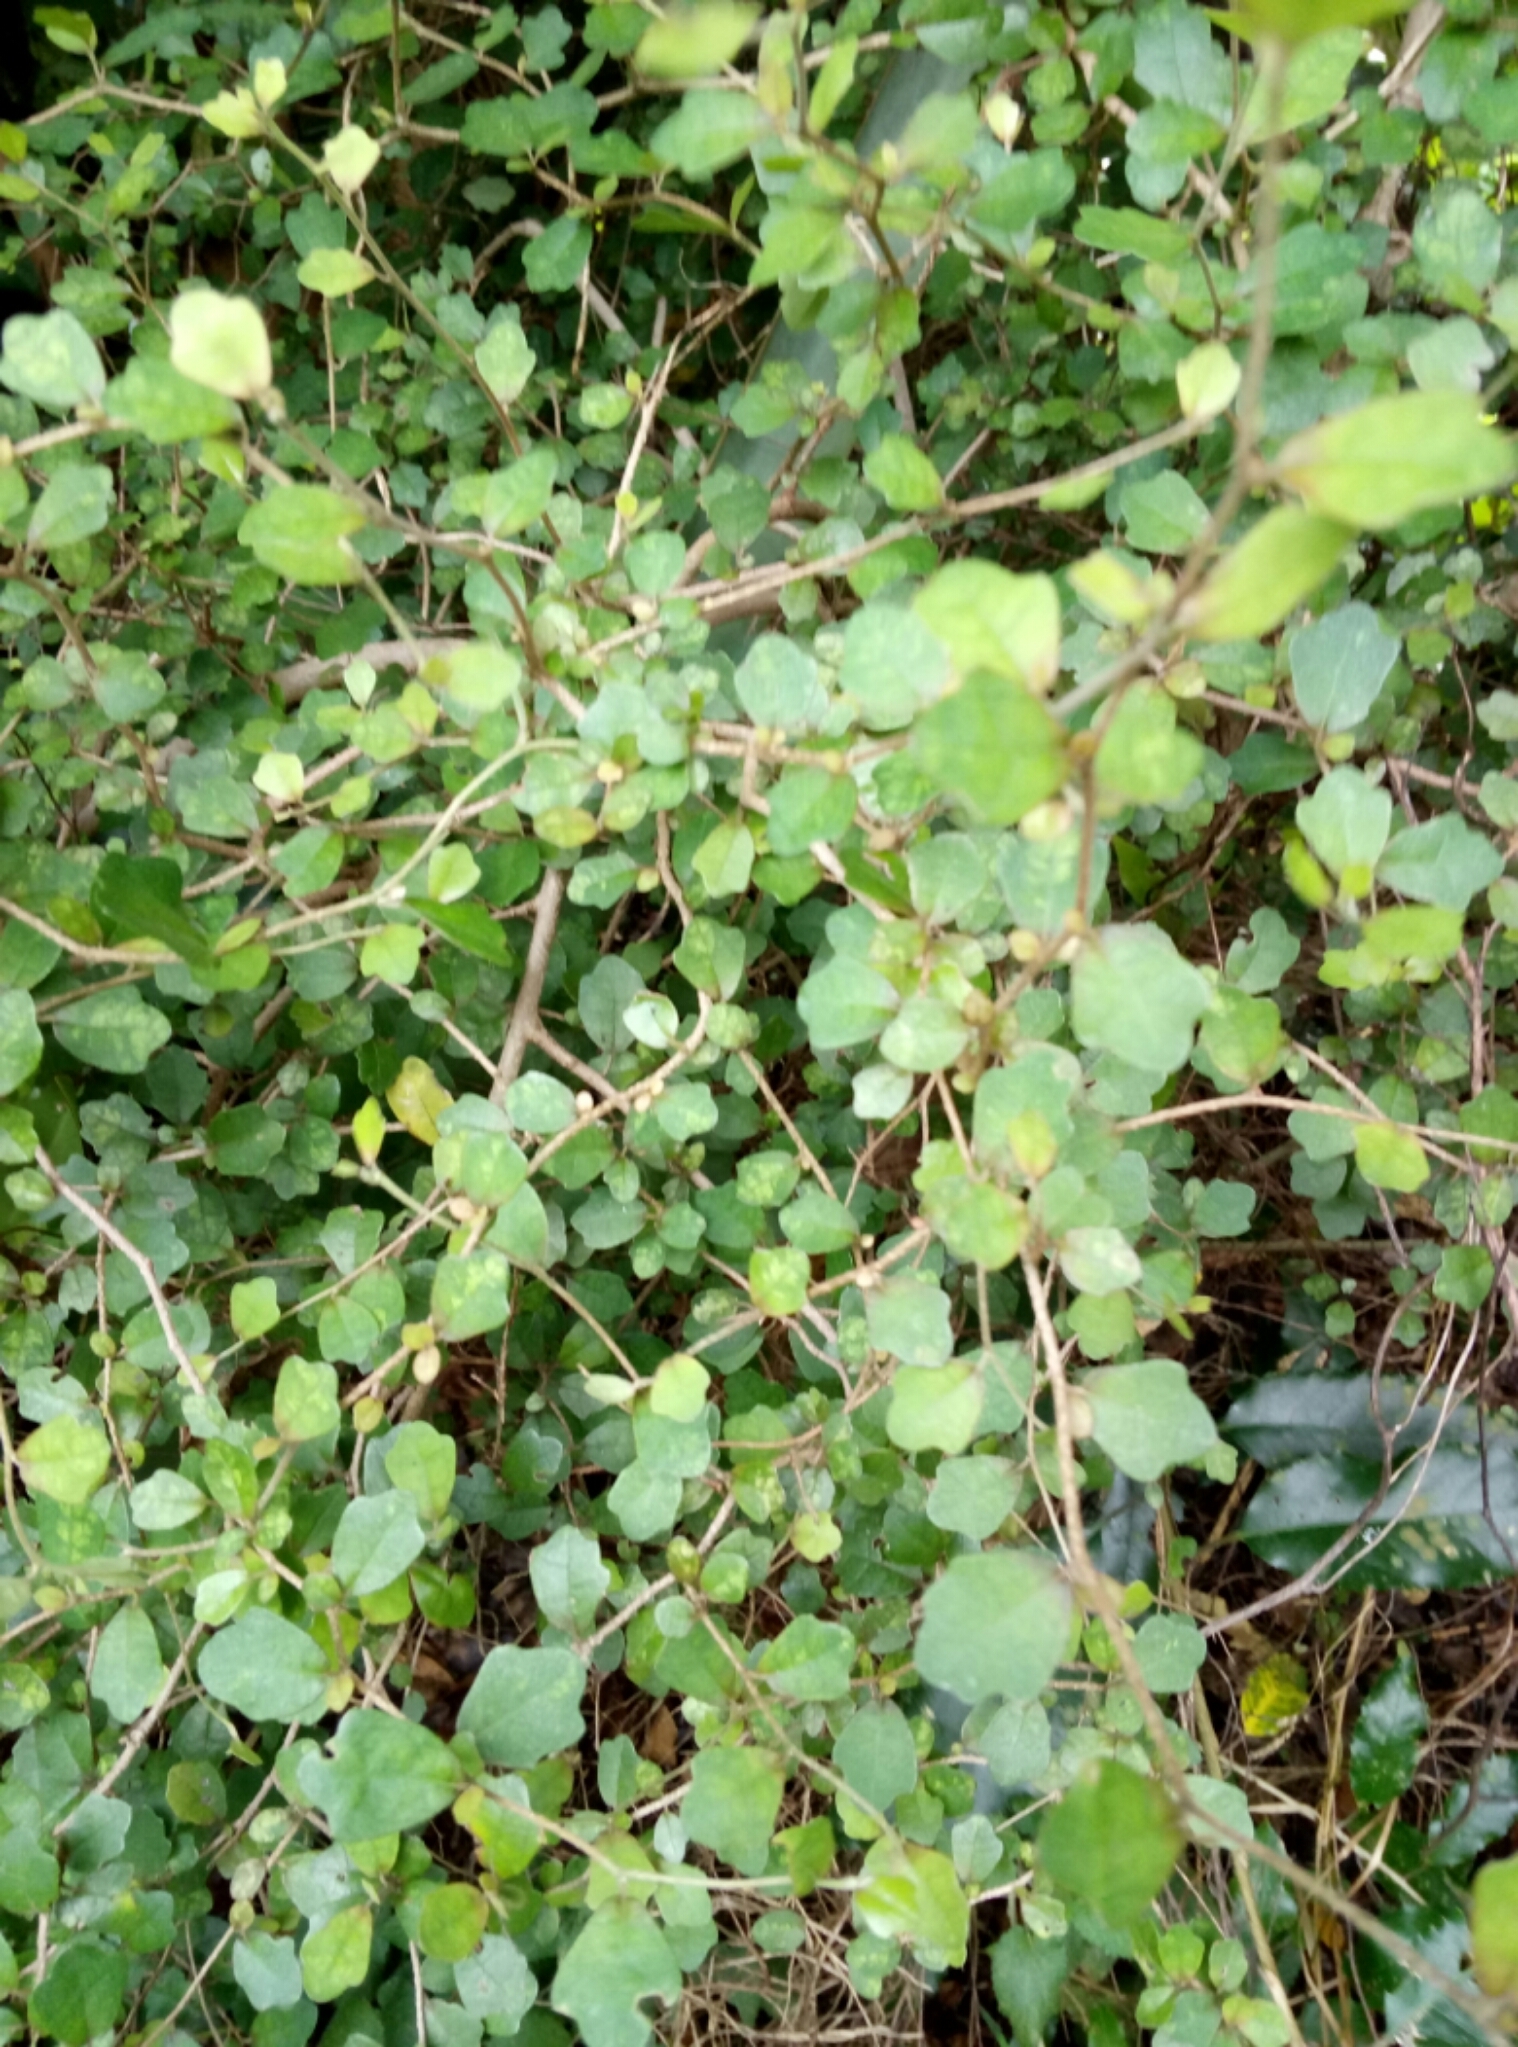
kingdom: Plantae
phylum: Tracheophyta
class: Magnoliopsida
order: Apiales
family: Pennantiaceae
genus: Pennantia
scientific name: Pennantia corymbosa
